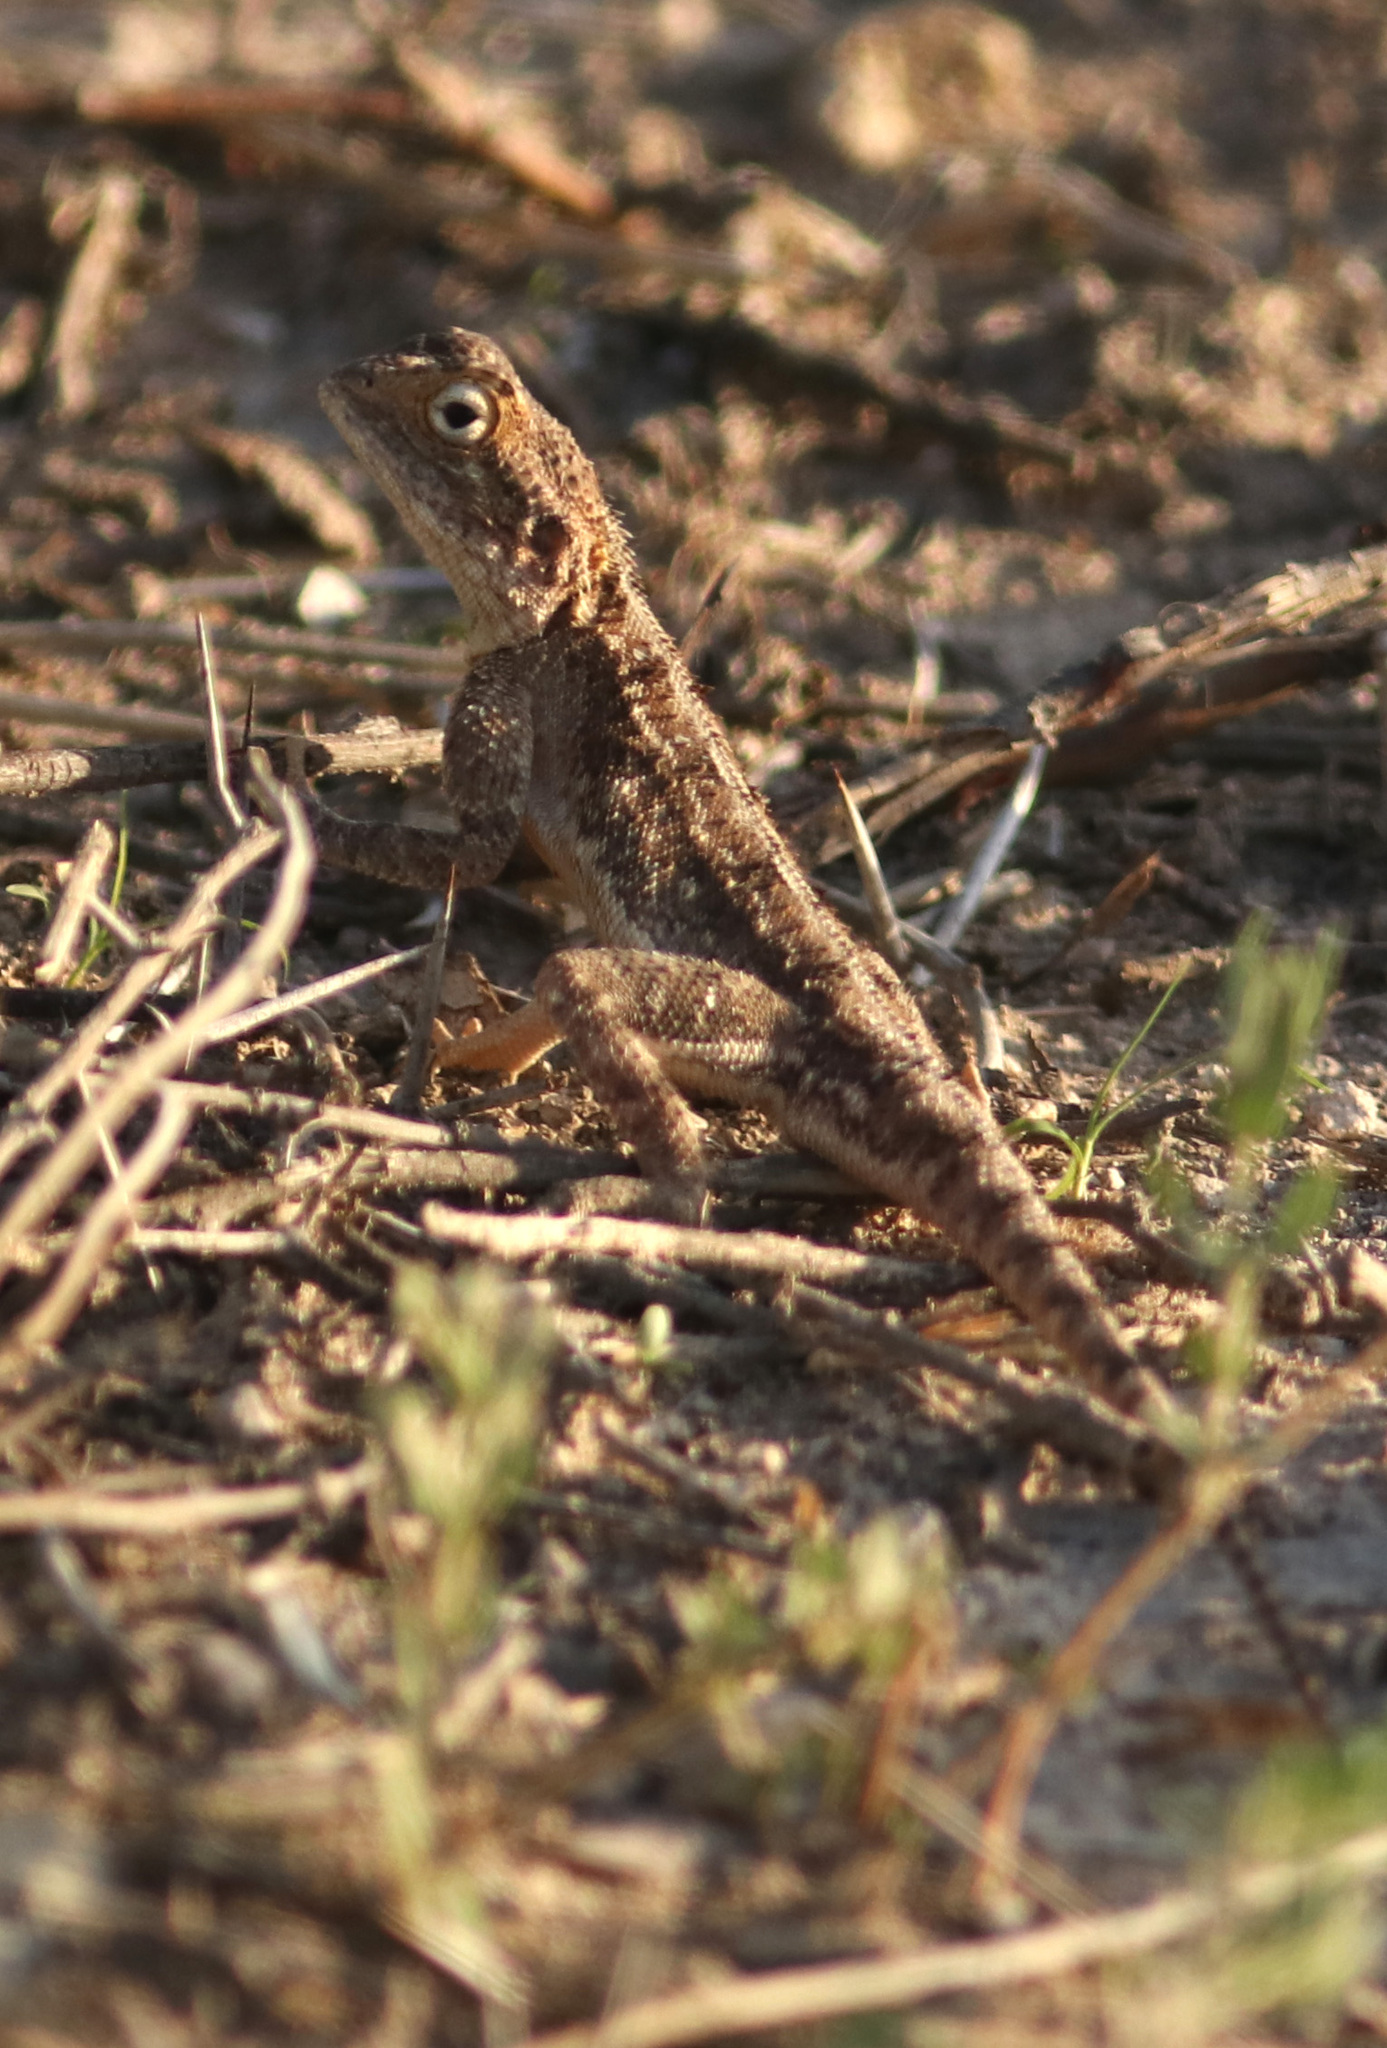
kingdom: Animalia
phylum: Chordata
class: Squamata
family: Agamidae
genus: Agama
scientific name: Agama aculeata
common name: Common ground agama
